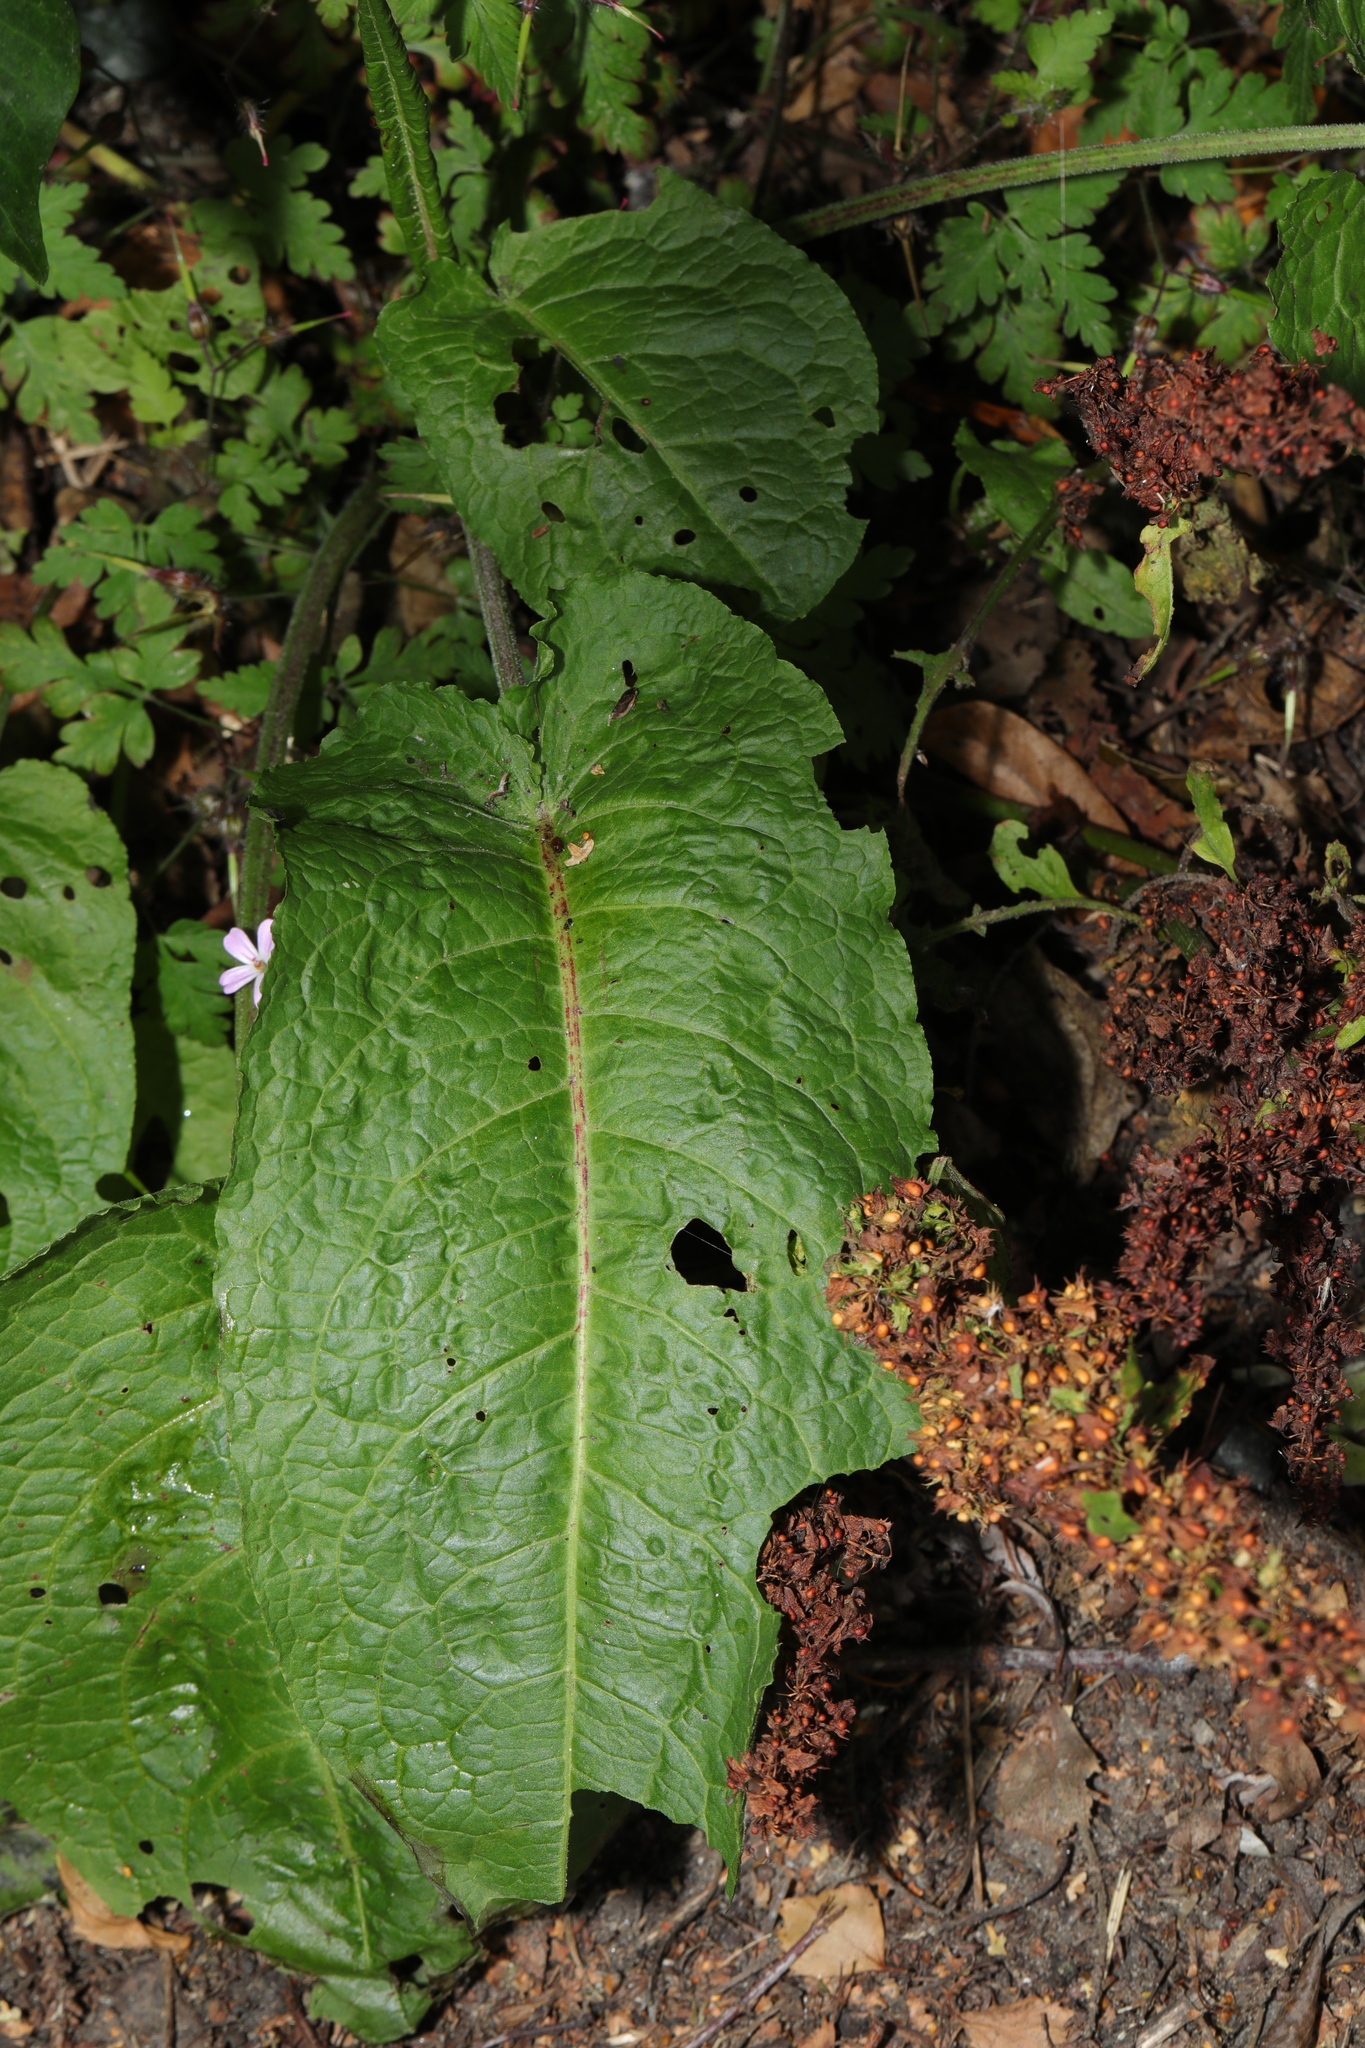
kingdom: Plantae
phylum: Tracheophyta
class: Magnoliopsida
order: Caryophyllales
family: Polygonaceae
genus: Rumex
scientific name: Rumex obtusifolius
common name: Bitter dock
